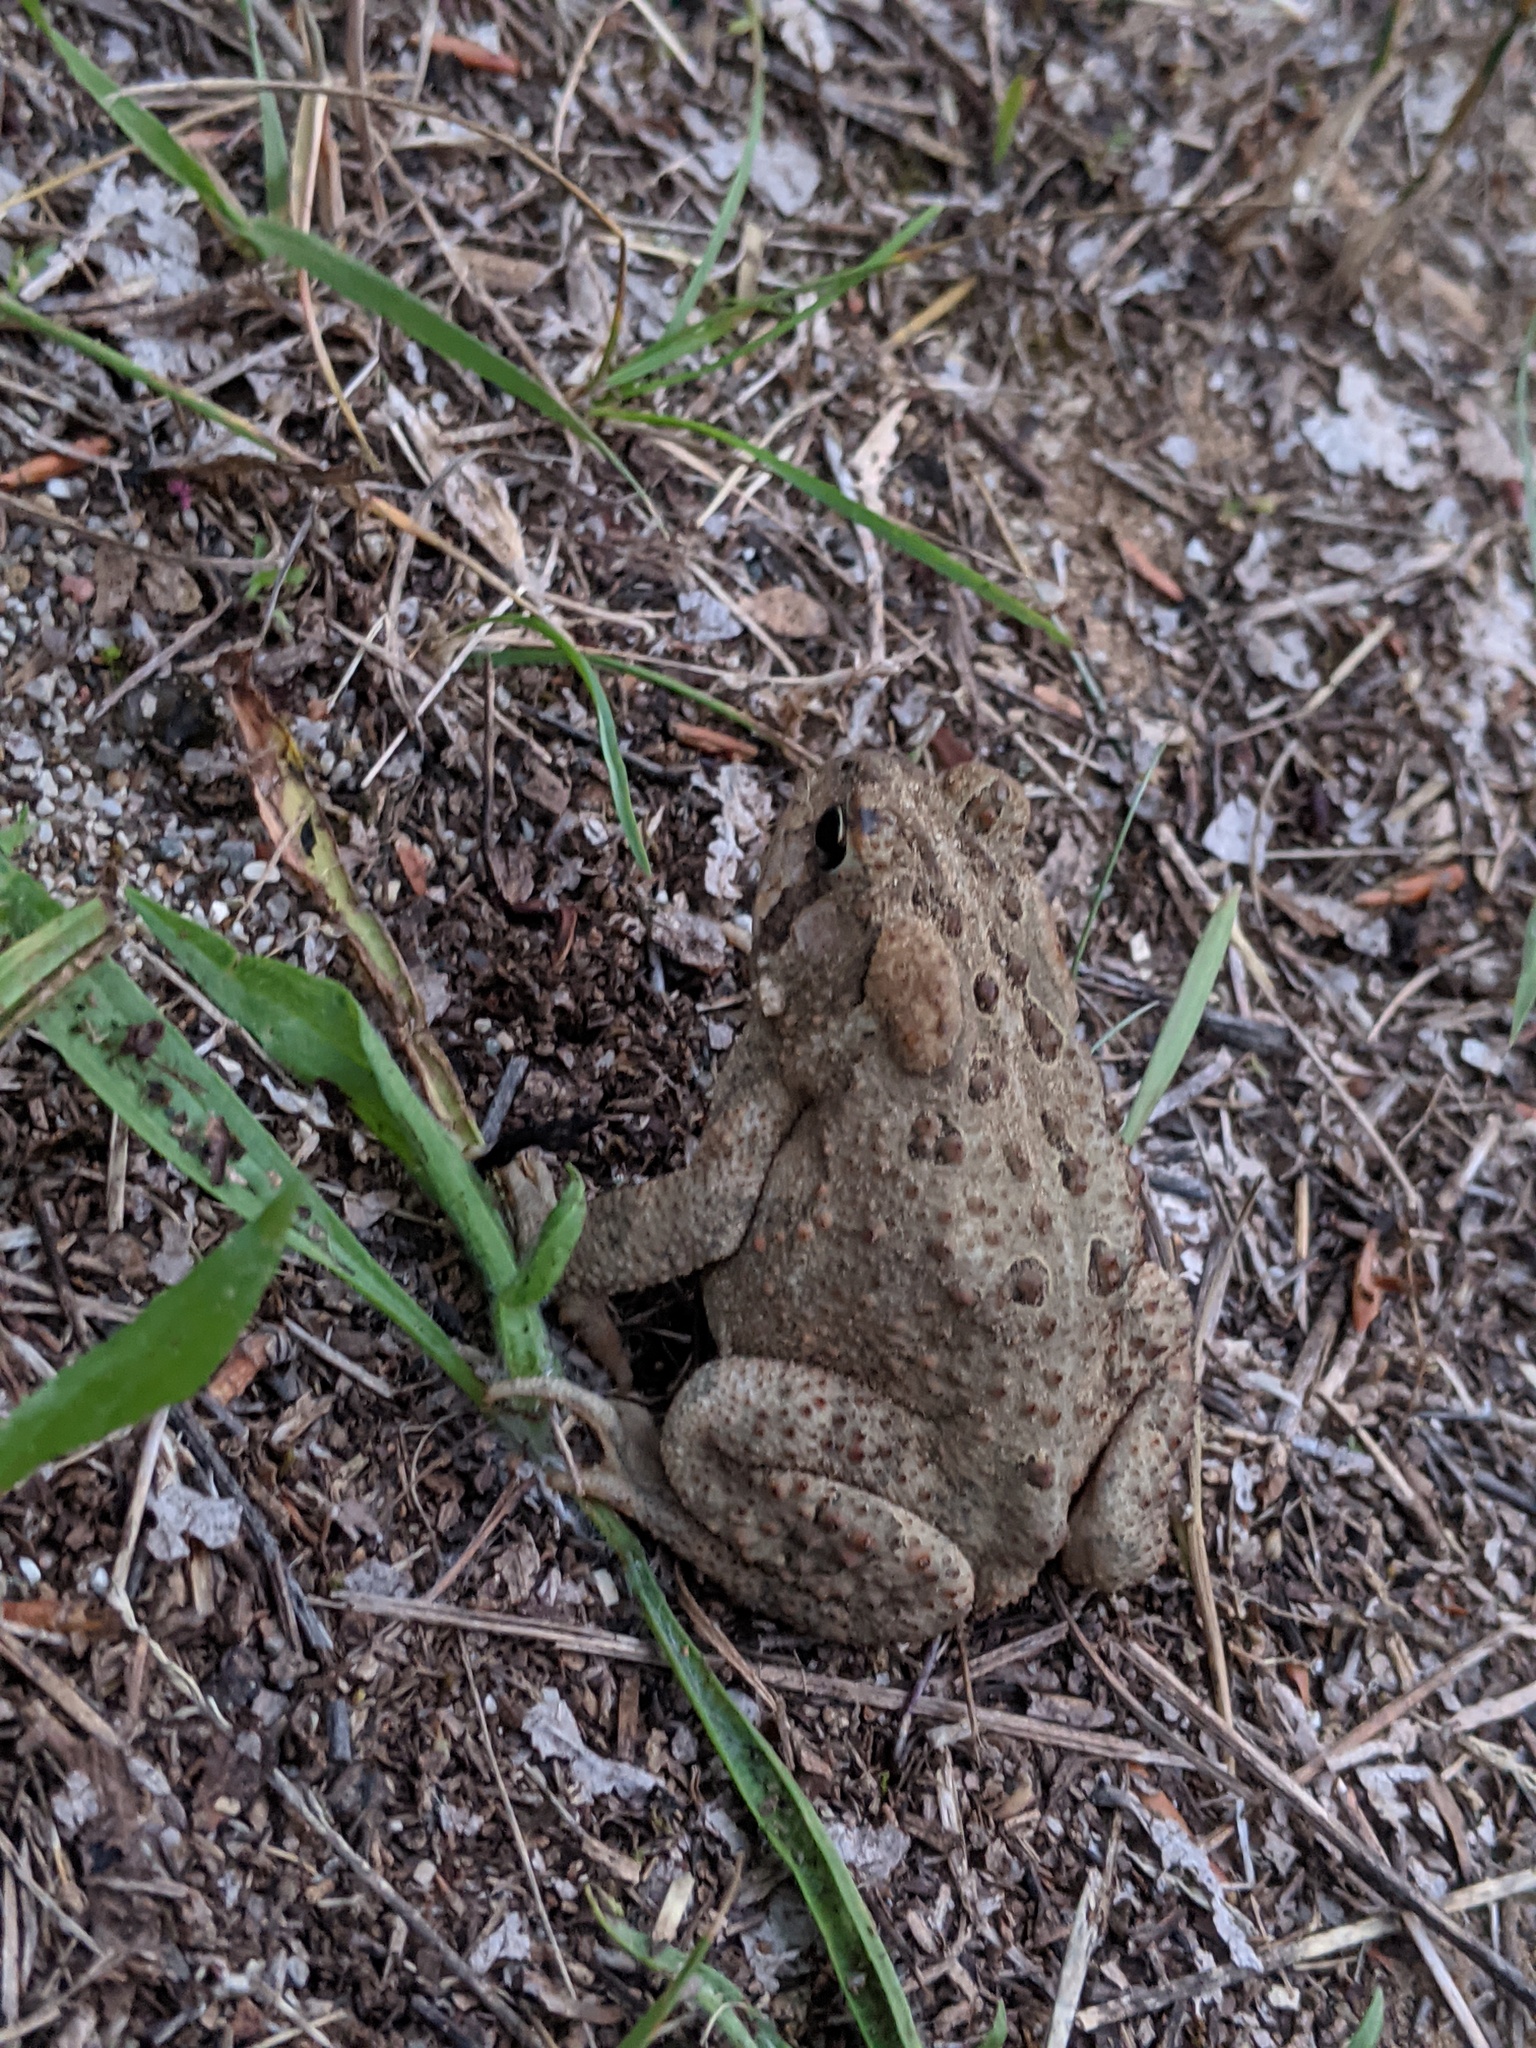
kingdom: Animalia
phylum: Chordata
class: Amphibia
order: Anura
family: Bufonidae
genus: Anaxyrus
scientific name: Anaxyrus americanus
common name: American toad
